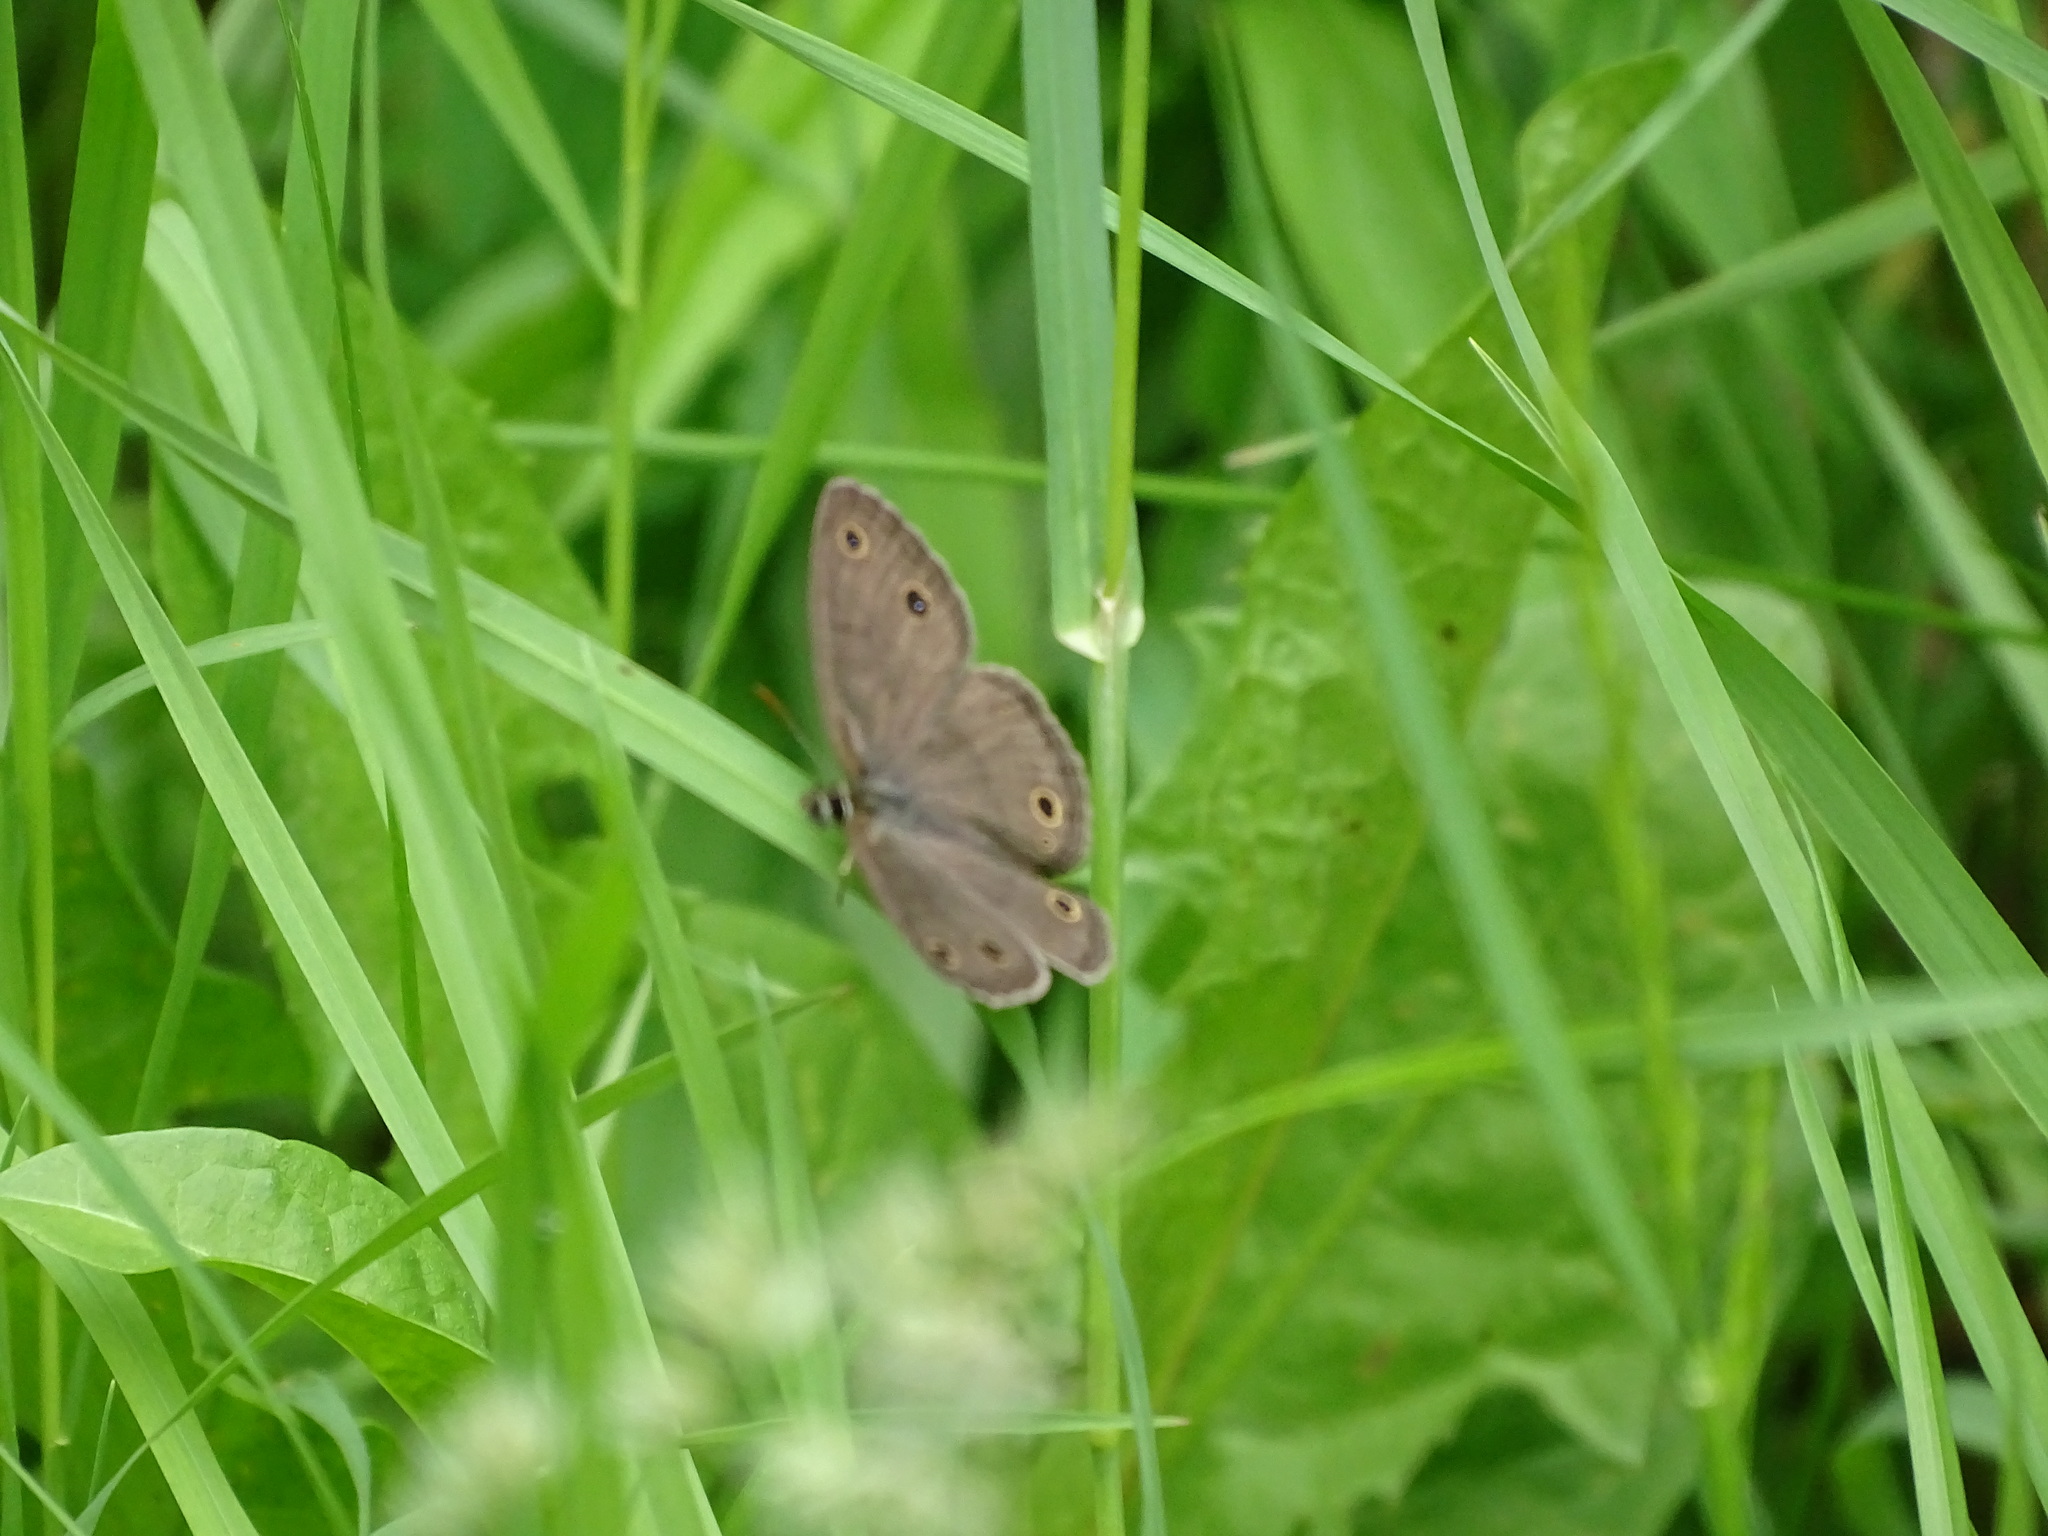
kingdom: Animalia
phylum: Arthropoda
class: Insecta
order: Lepidoptera
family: Nymphalidae
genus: Euptychia
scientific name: Euptychia cymela
